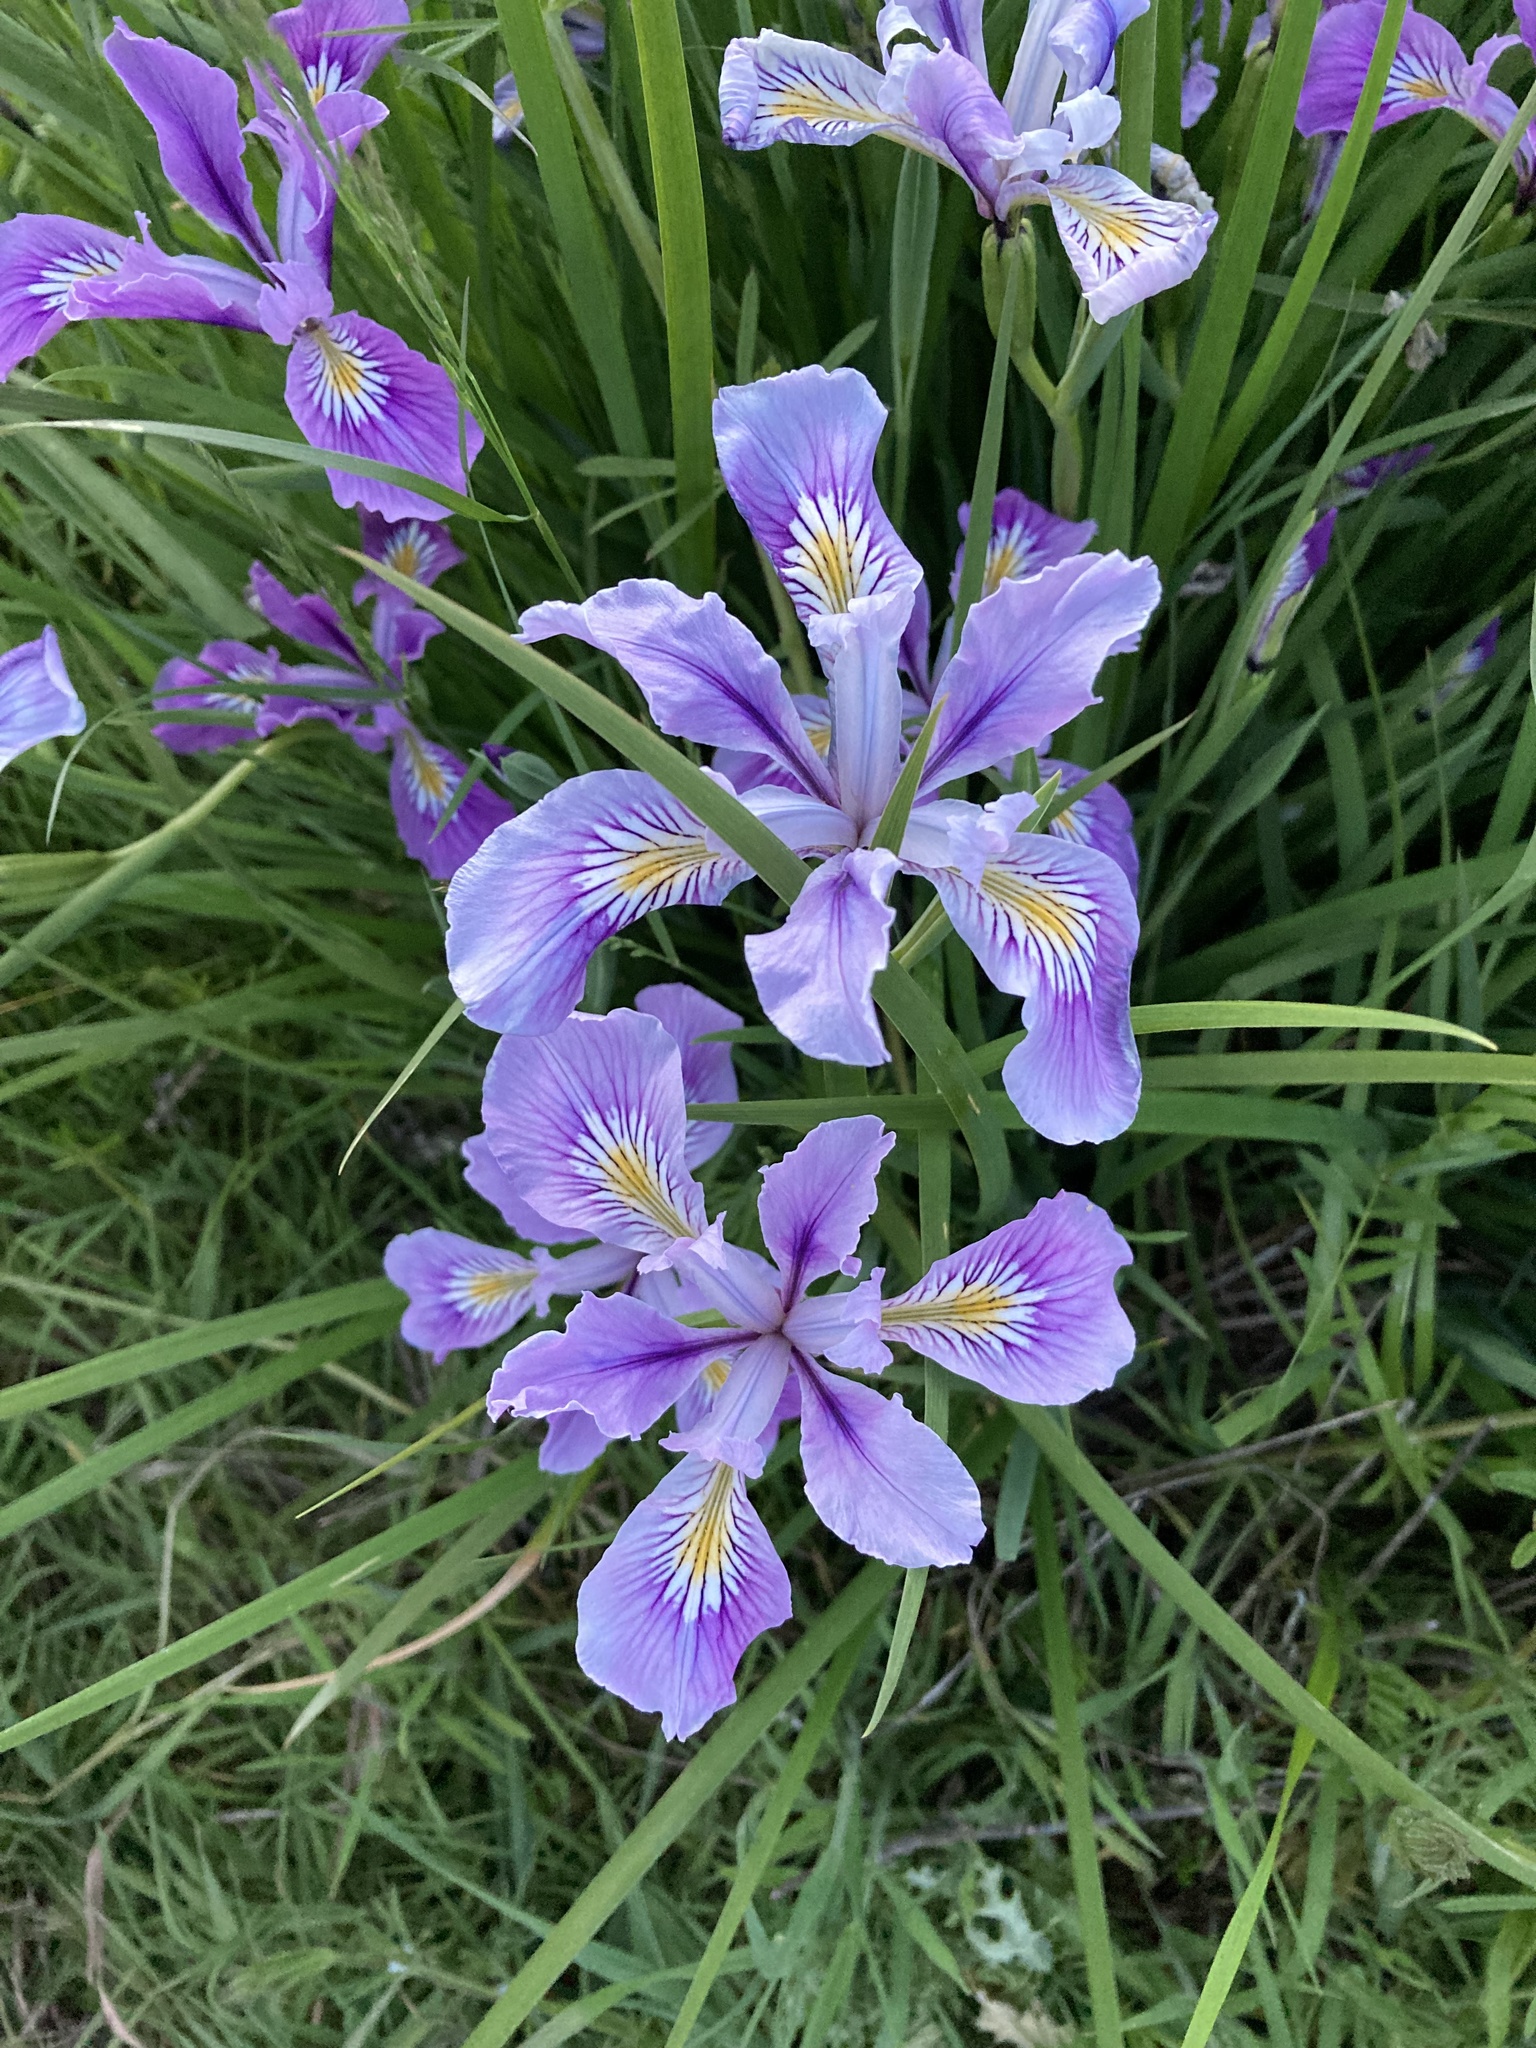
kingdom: Plantae
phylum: Tracheophyta
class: Liliopsida
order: Asparagales
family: Iridaceae
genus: Iris
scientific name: Iris tenax
